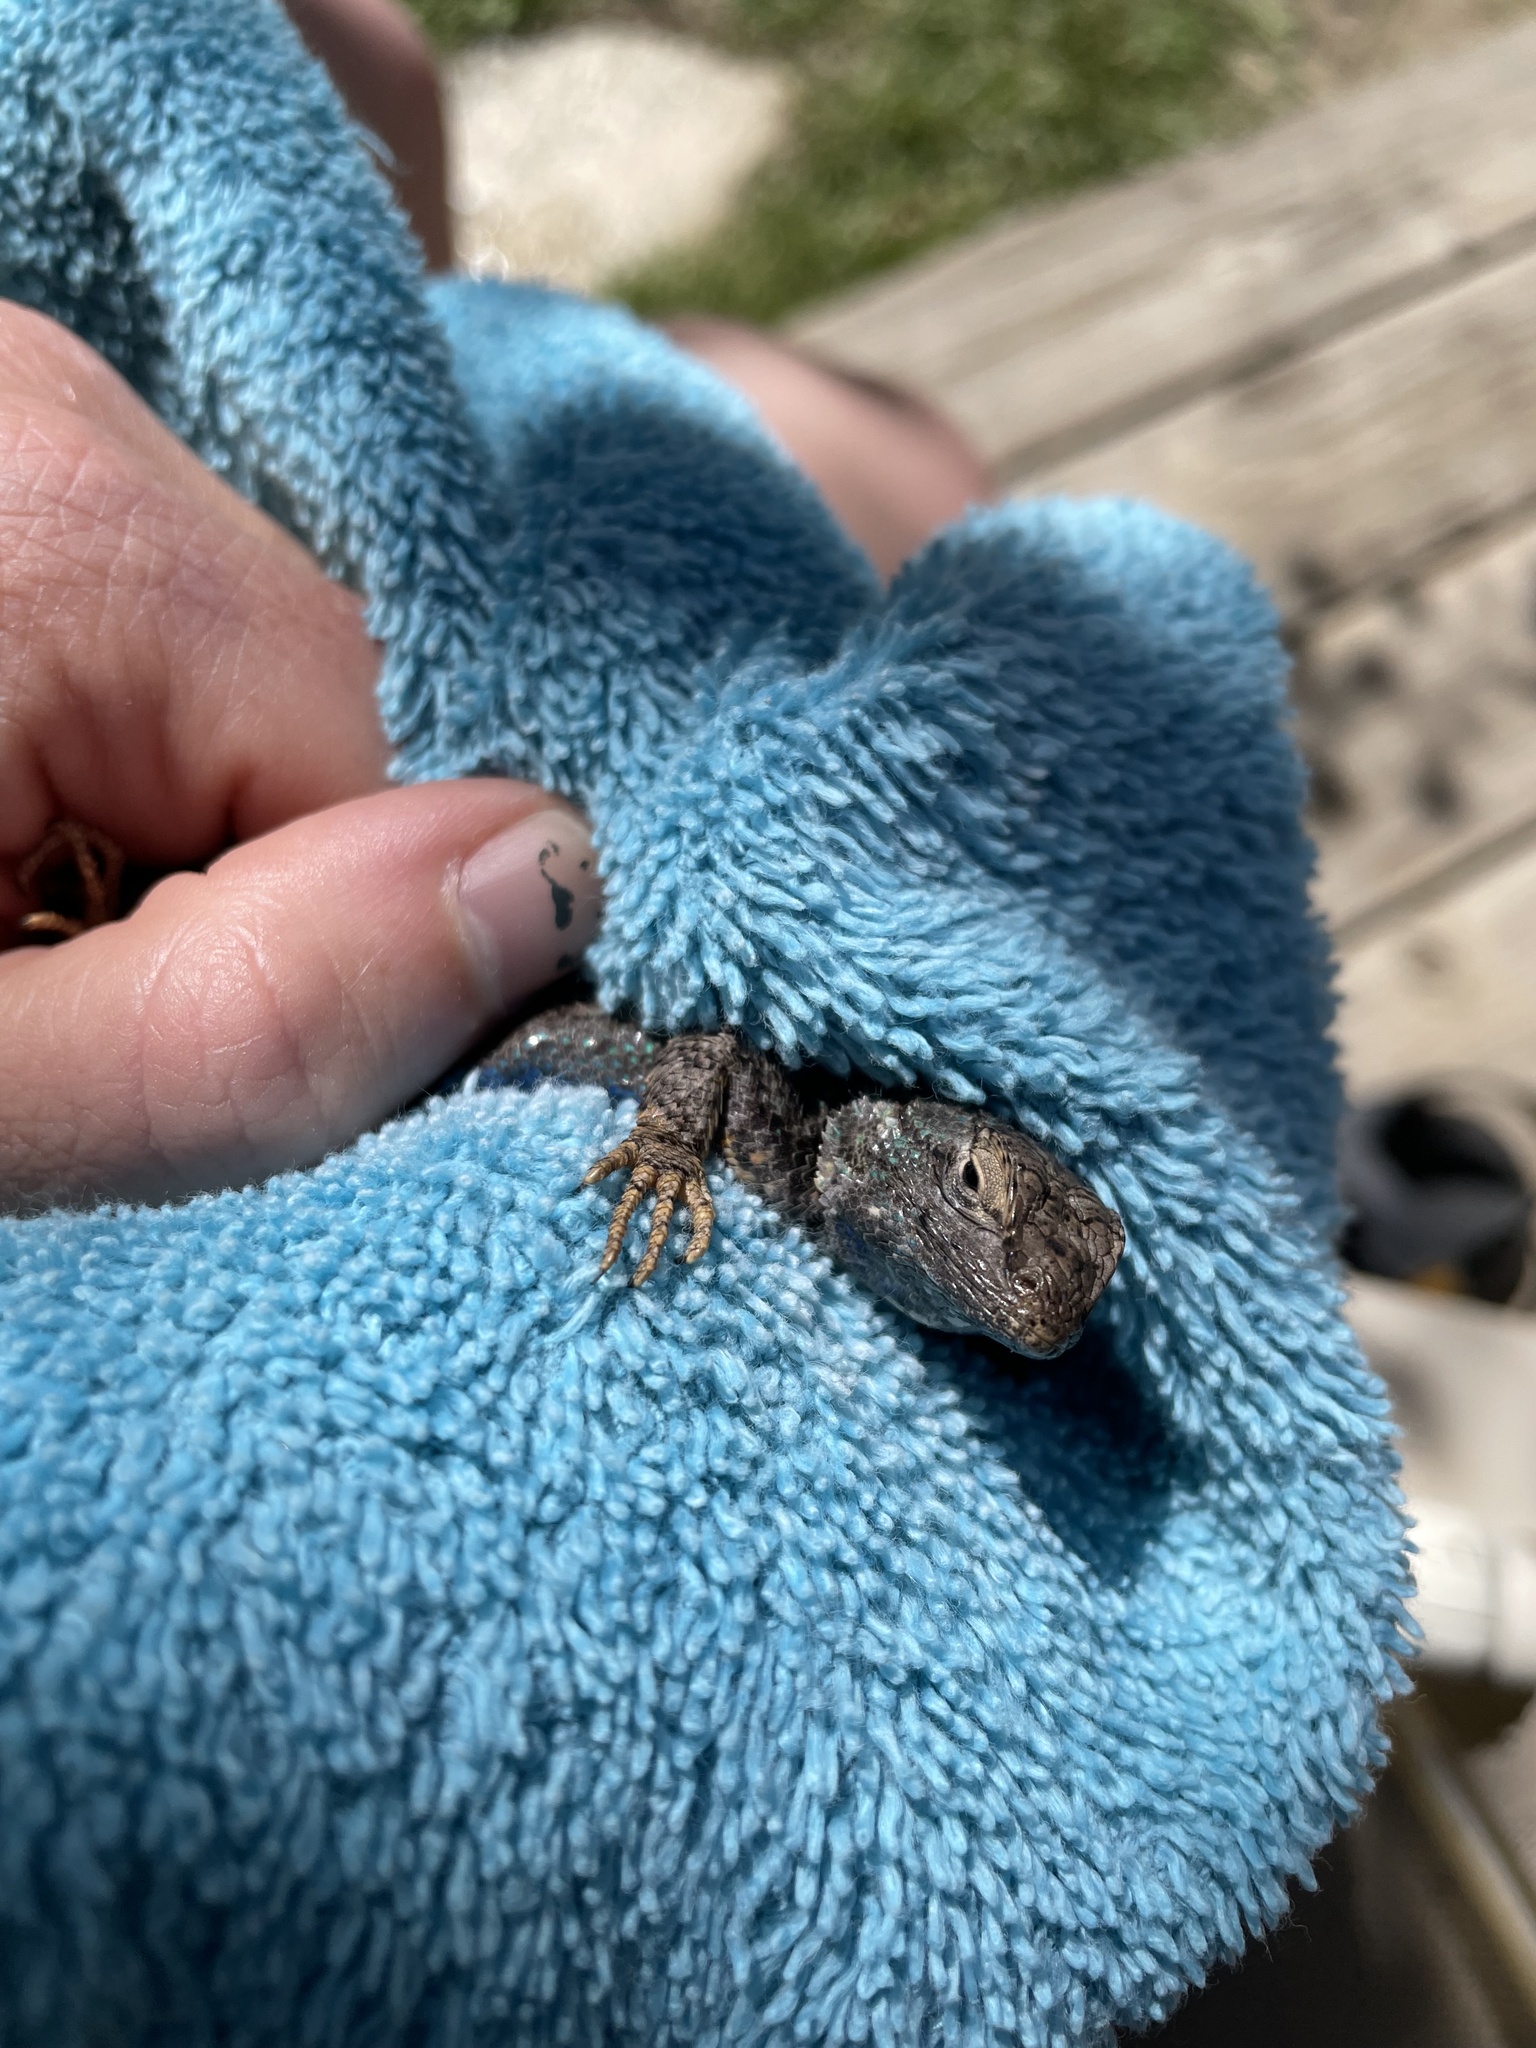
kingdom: Animalia
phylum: Chordata
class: Squamata
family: Phrynosomatidae
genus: Sceloporus
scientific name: Sceloporus occidentalis
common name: Western fence lizard
